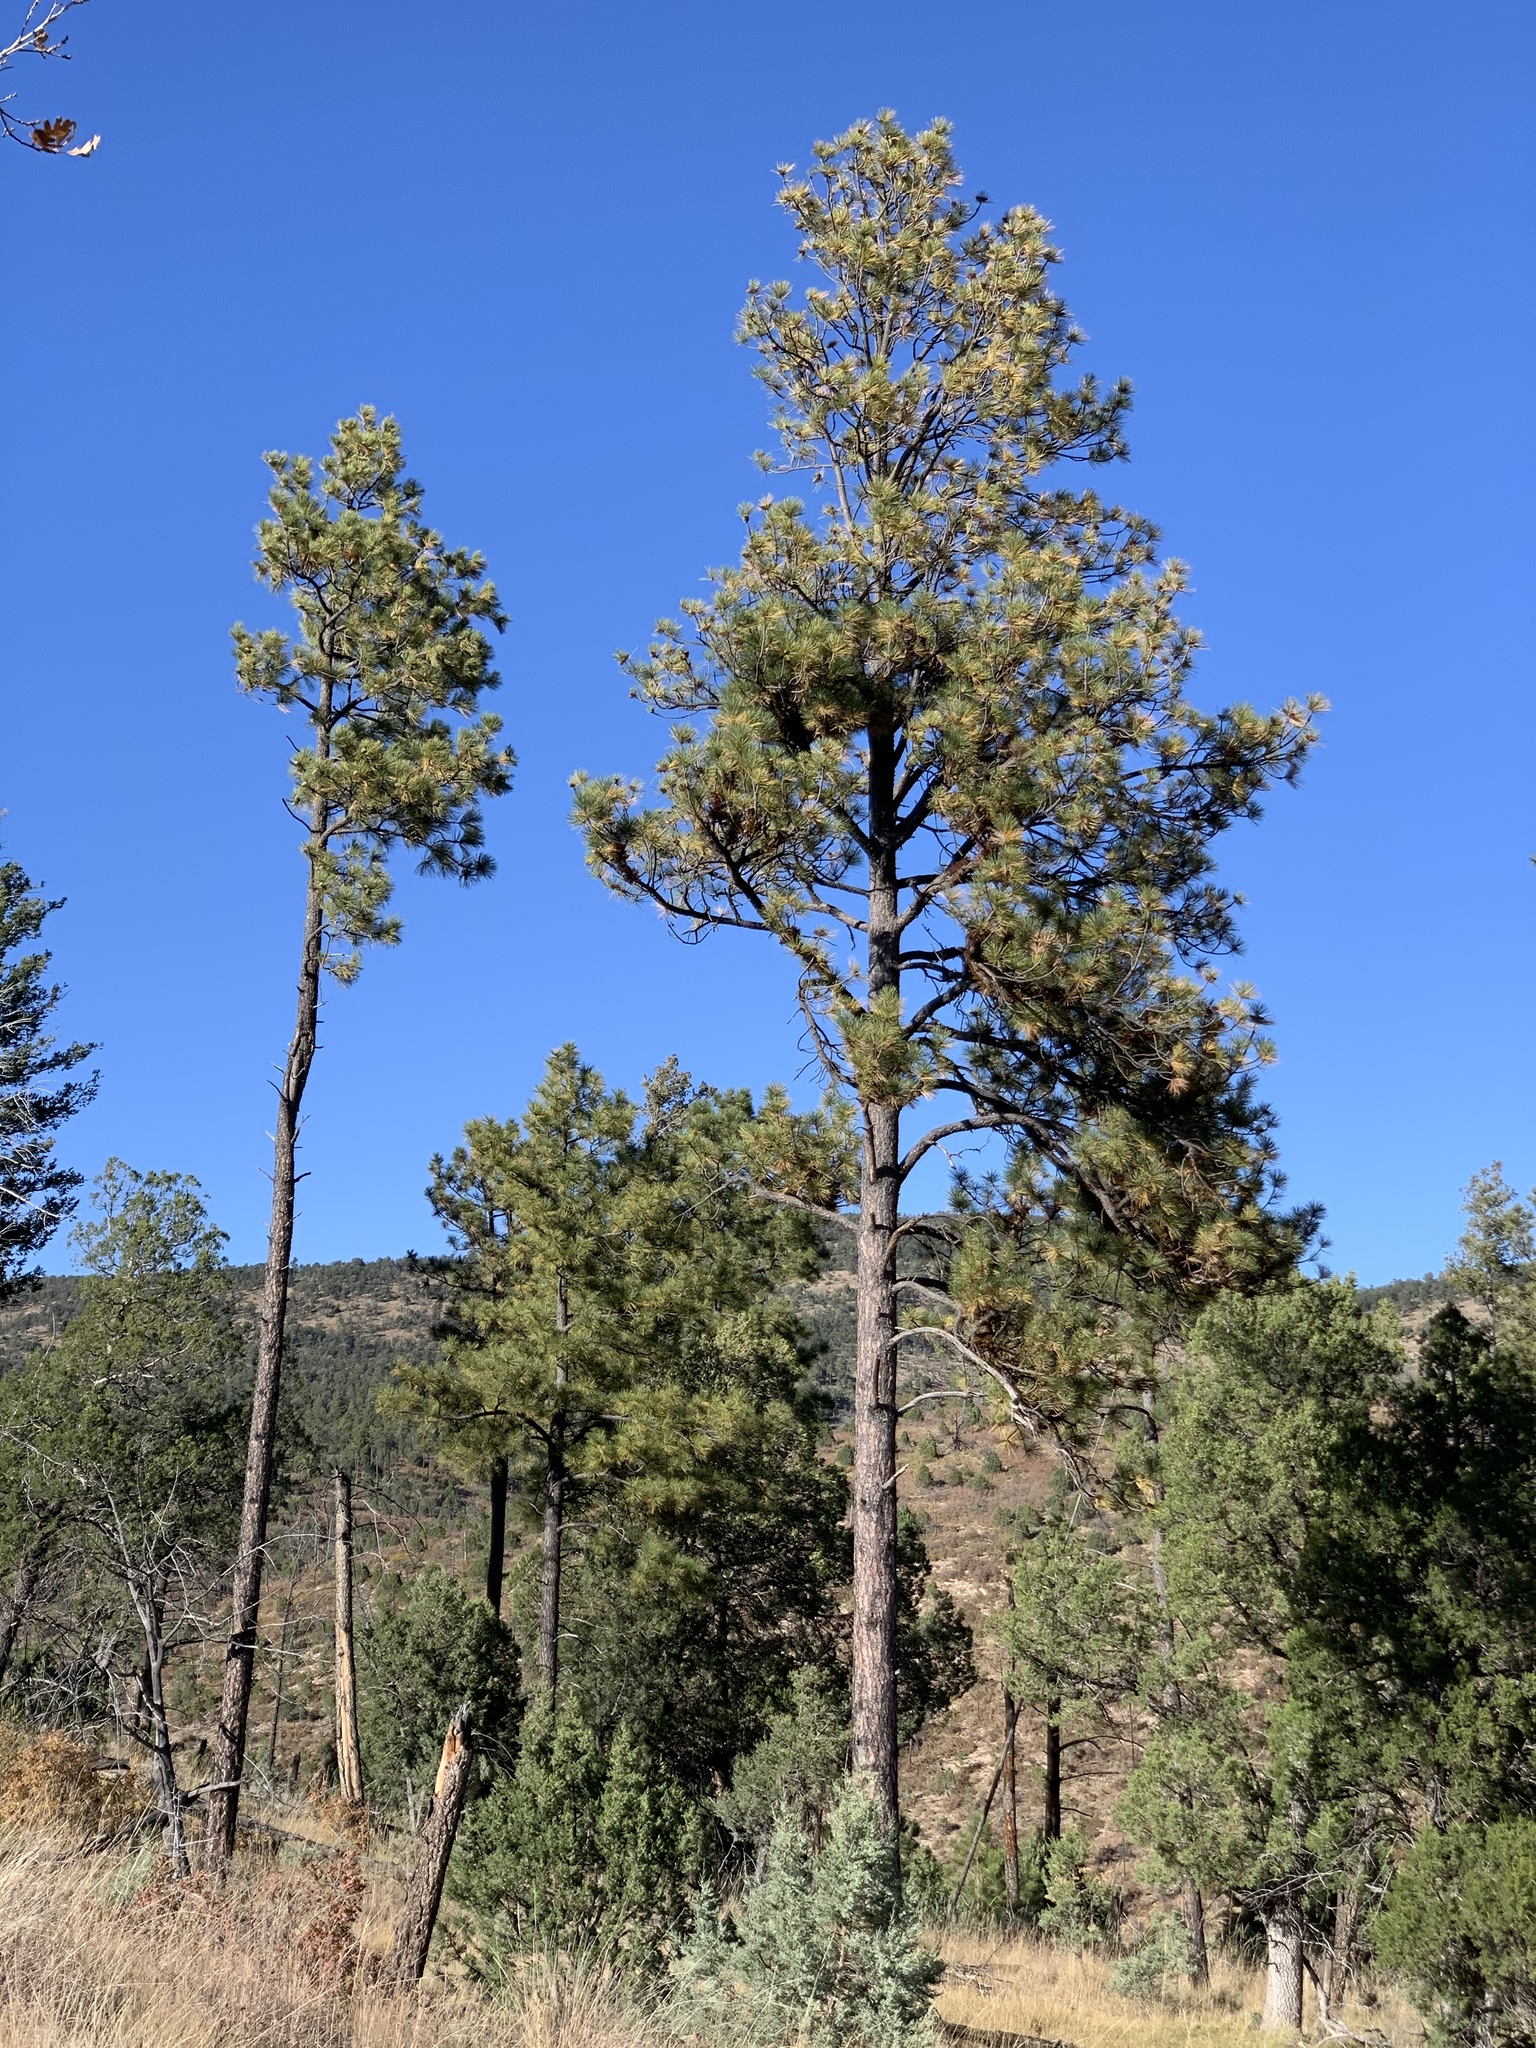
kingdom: Plantae
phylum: Tracheophyta
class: Pinopsida
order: Pinales
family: Pinaceae
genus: Pinus
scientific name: Pinus ponderosa
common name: Western yellow-pine
